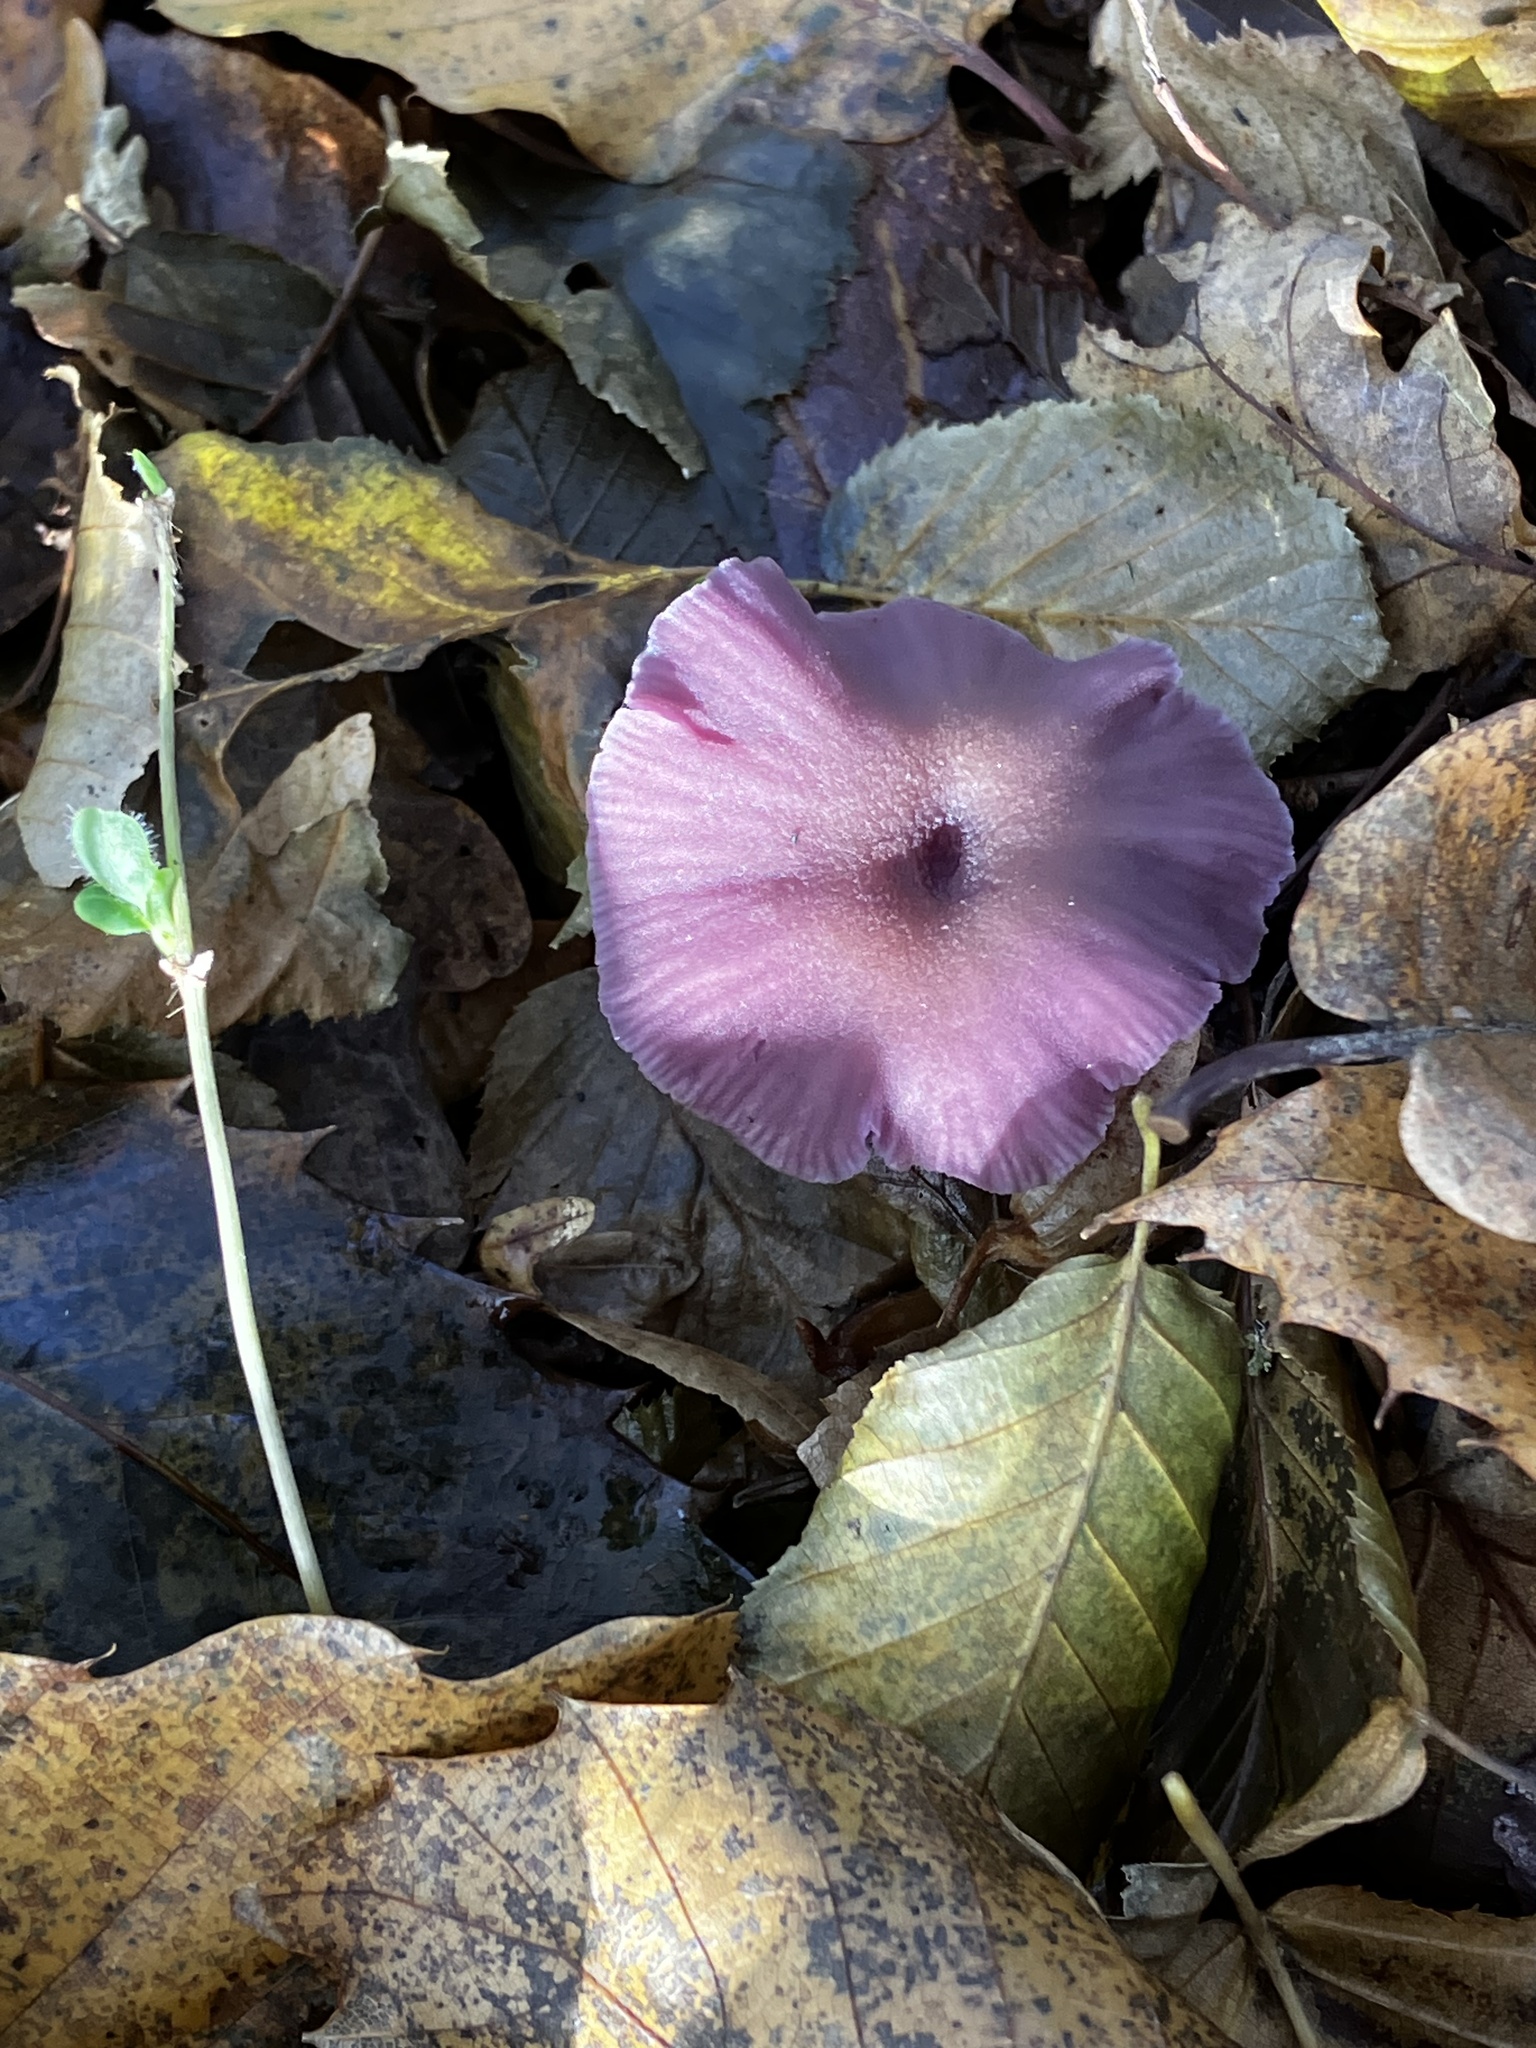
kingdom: Fungi
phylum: Basidiomycota
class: Agaricomycetes
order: Agaricales
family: Hydnangiaceae
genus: Laccaria
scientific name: Laccaria amethystina
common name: Amethyst deceiver
